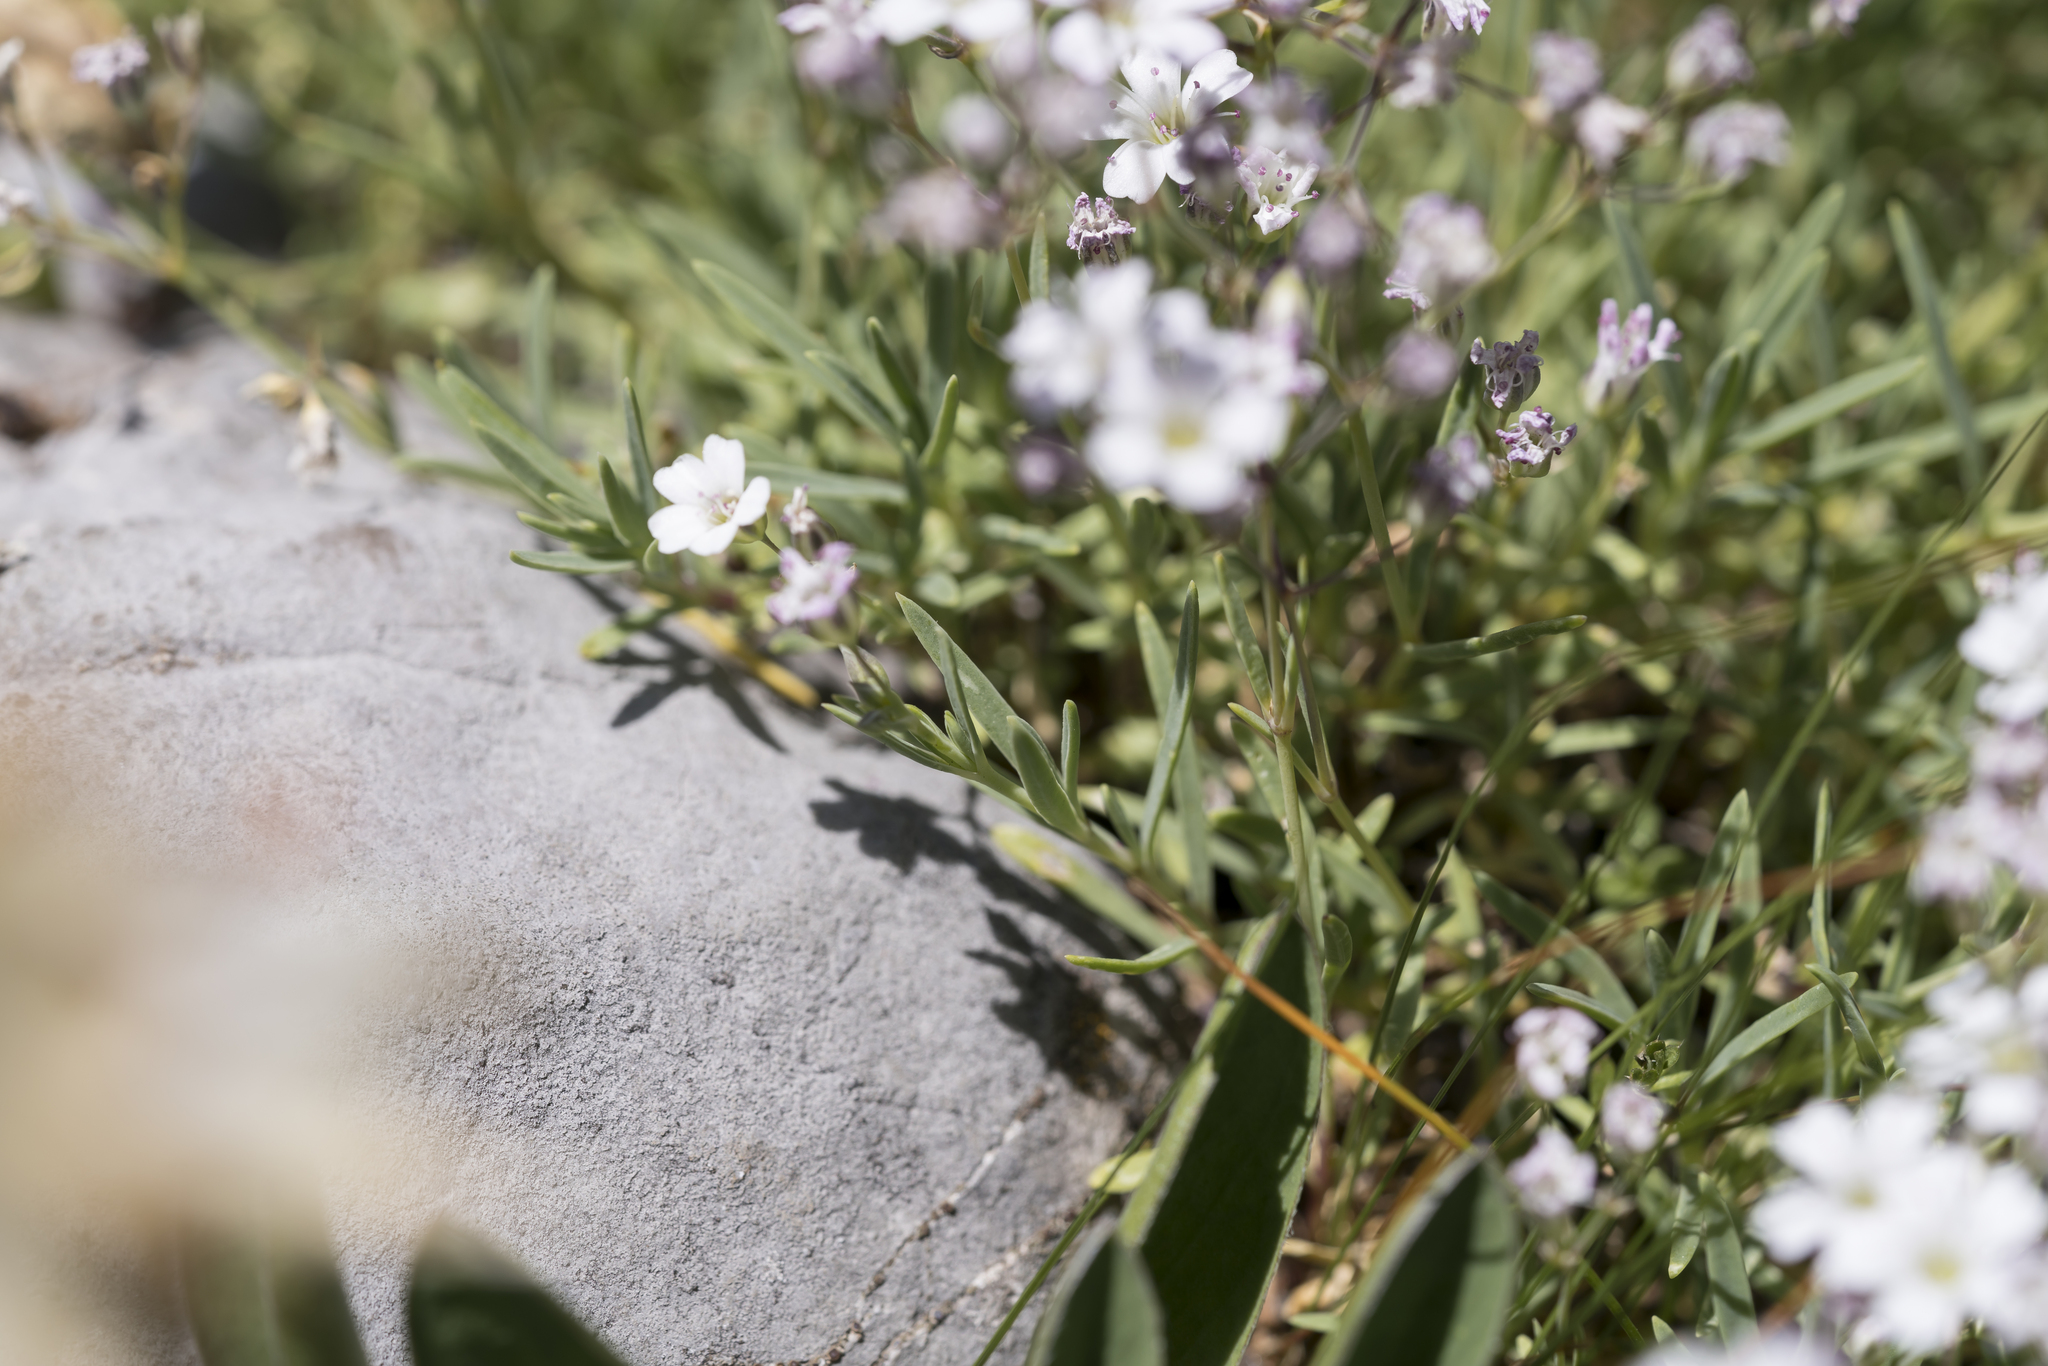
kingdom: Plantae
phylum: Tracheophyta
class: Magnoliopsida
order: Caryophyllales
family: Caryophyllaceae
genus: Gypsophila
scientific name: Gypsophila repens
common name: Creeping baby's-breath
